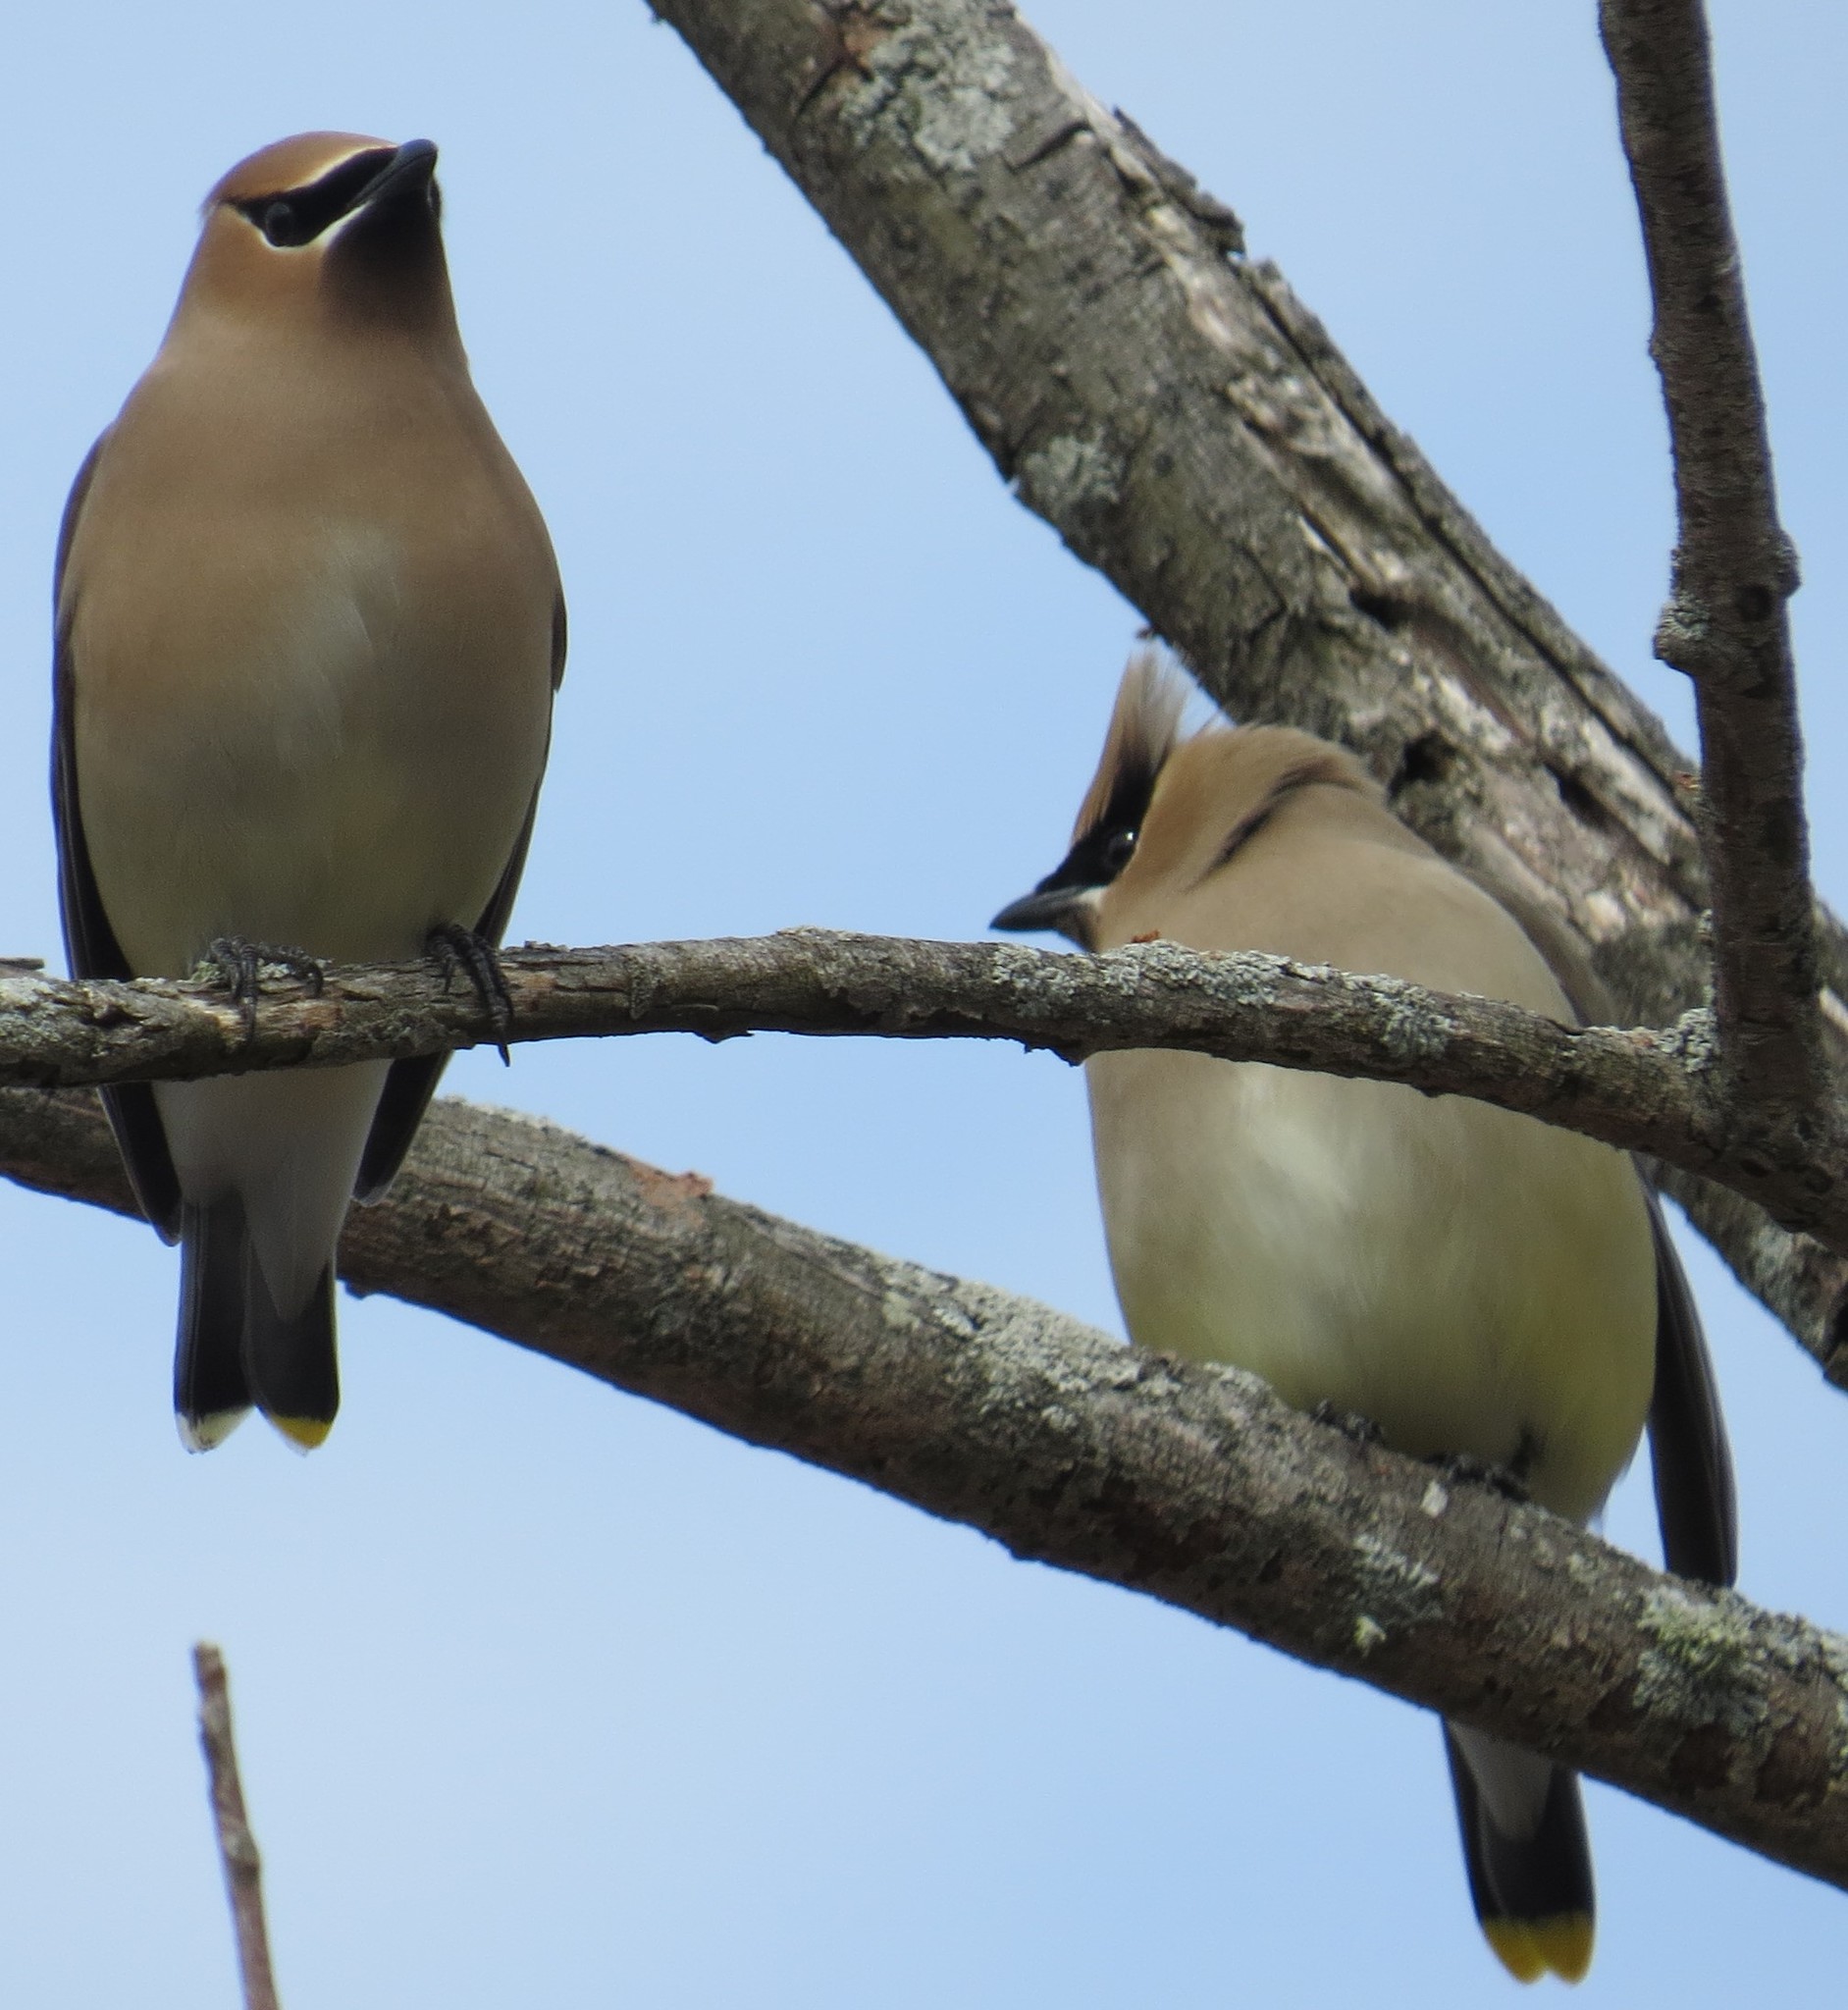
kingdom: Animalia
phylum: Chordata
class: Aves
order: Passeriformes
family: Bombycillidae
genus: Bombycilla
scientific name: Bombycilla cedrorum
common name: Cedar waxwing
